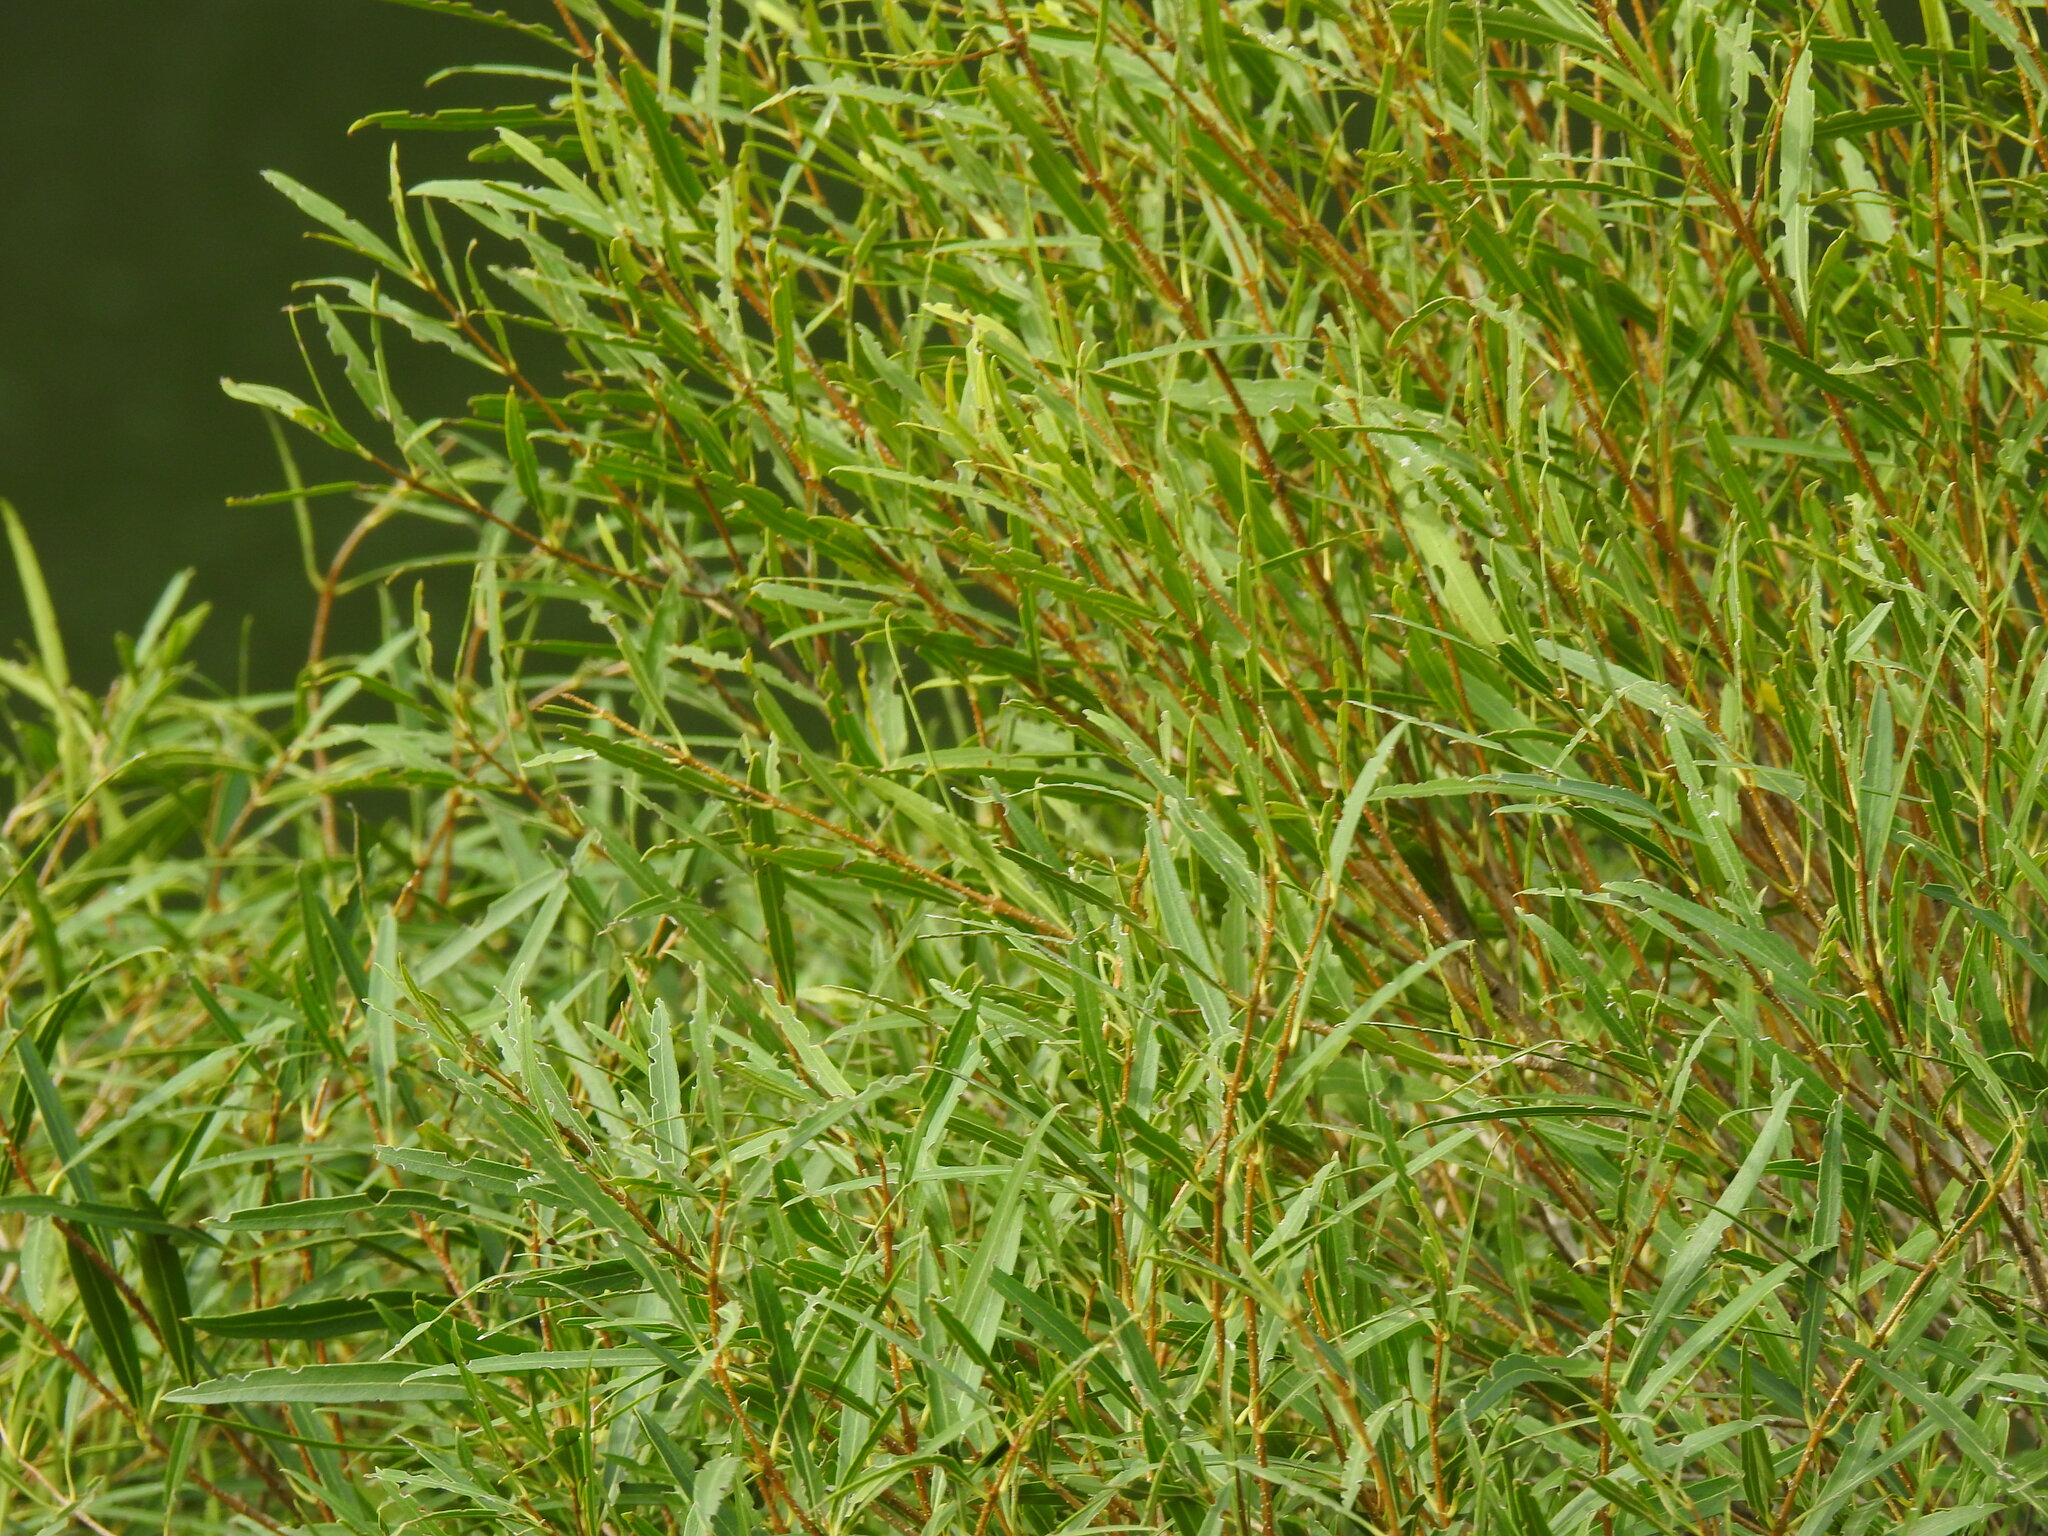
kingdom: Plantae
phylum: Tracheophyta
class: Magnoliopsida
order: Lamiales
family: Oleaceae
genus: Phillyrea
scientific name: Phillyrea angustifolia
